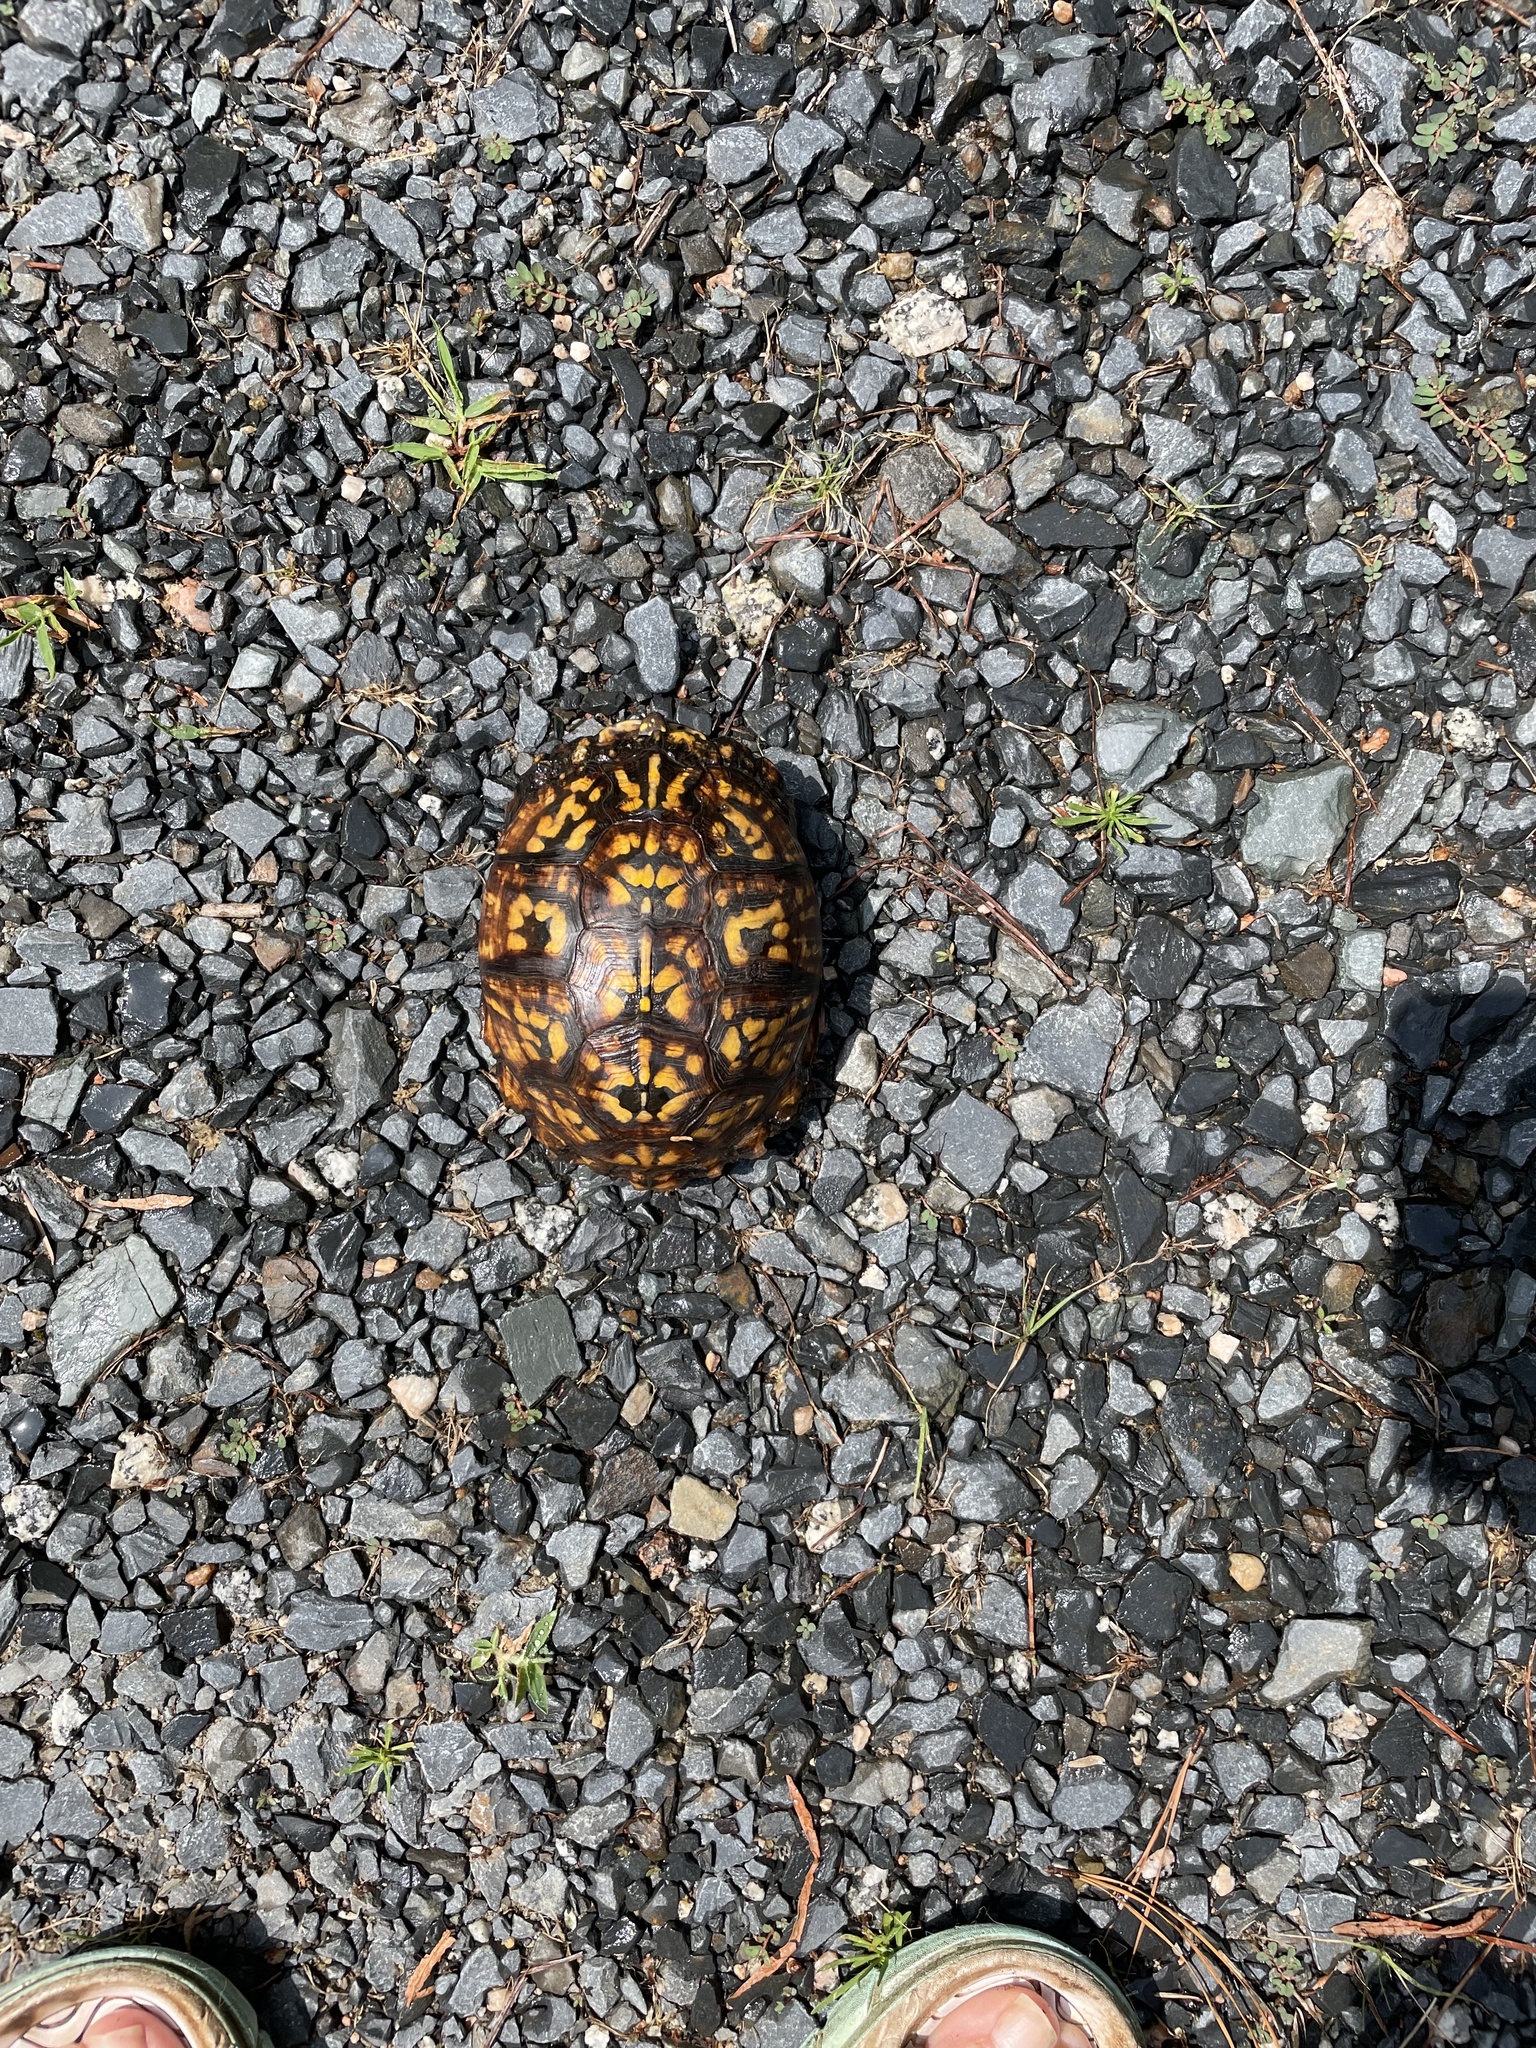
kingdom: Animalia
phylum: Chordata
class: Testudines
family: Emydidae
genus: Terrapene
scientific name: Terrapene carolina
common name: Common box turtle
